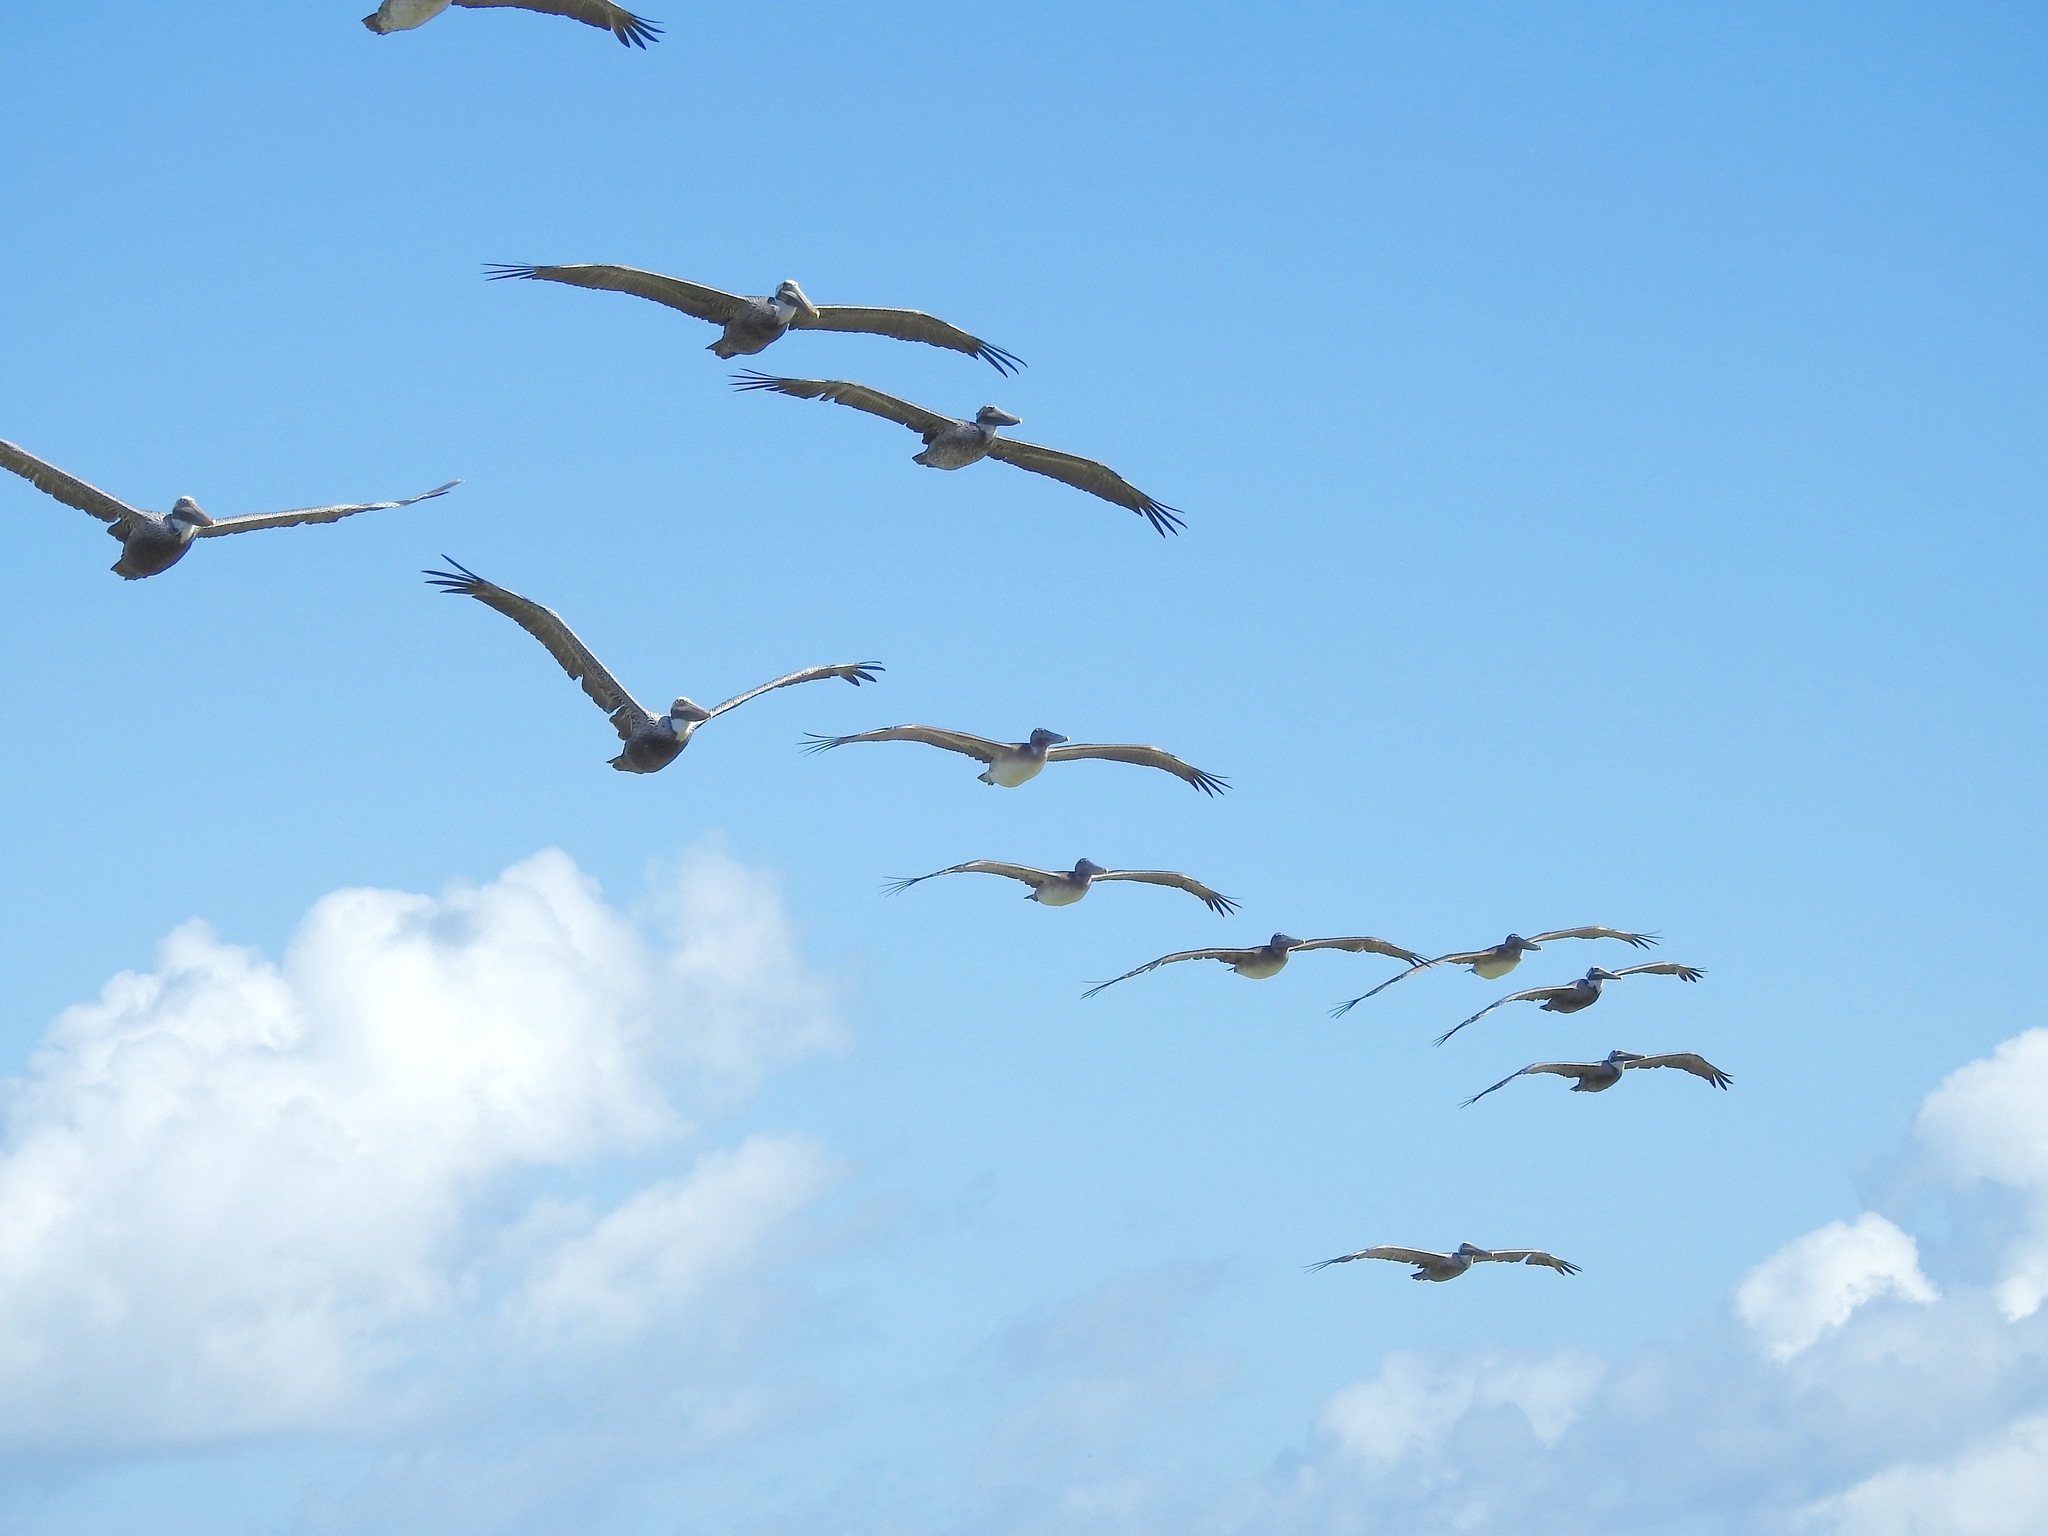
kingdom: Animalia
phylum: Chordata
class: Aves
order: Pelecaniformes
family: Pelecanidae
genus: Pelecanus
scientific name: Pelecanus occidentalis
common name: Brown pelican
